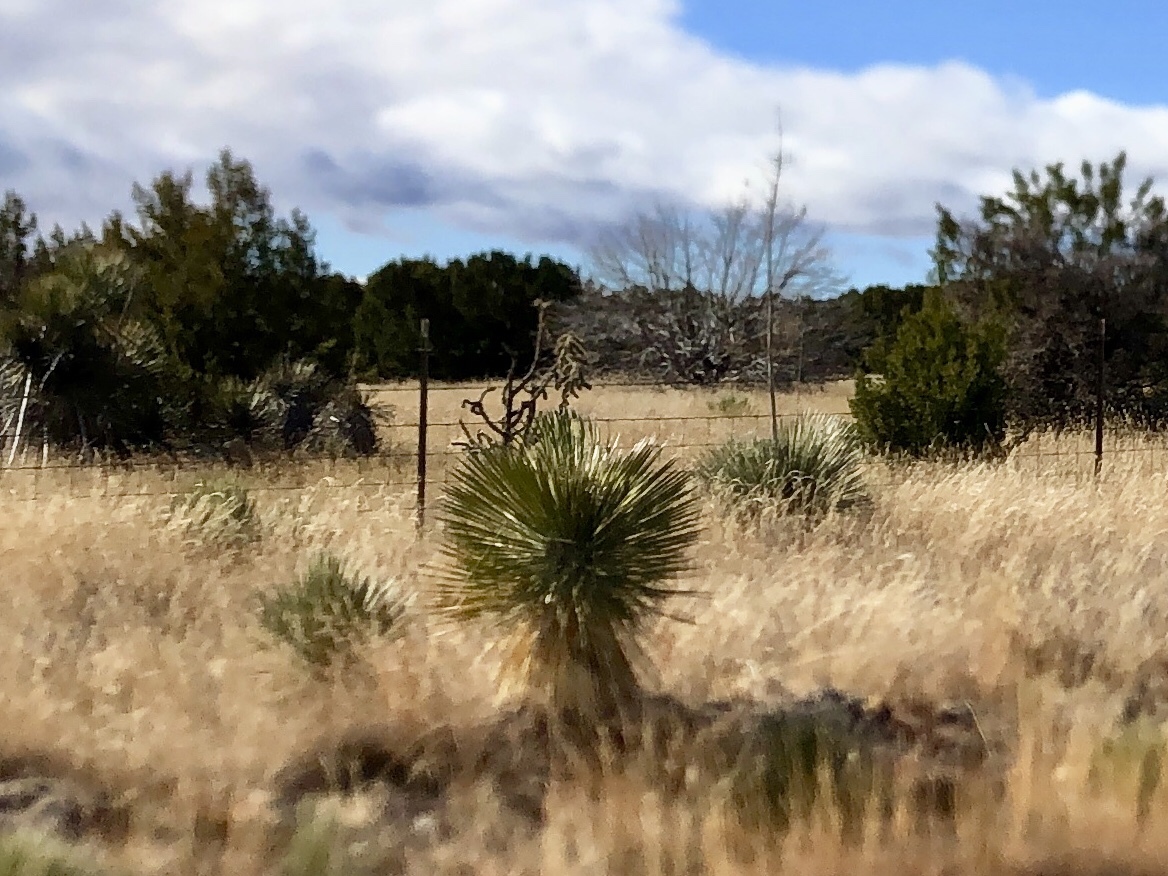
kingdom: Plantae
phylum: Tracheophyta
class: Liliopsida
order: Asparagales
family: Asparagaceae
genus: Yucca
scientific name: Yucca elata
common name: Palmella
